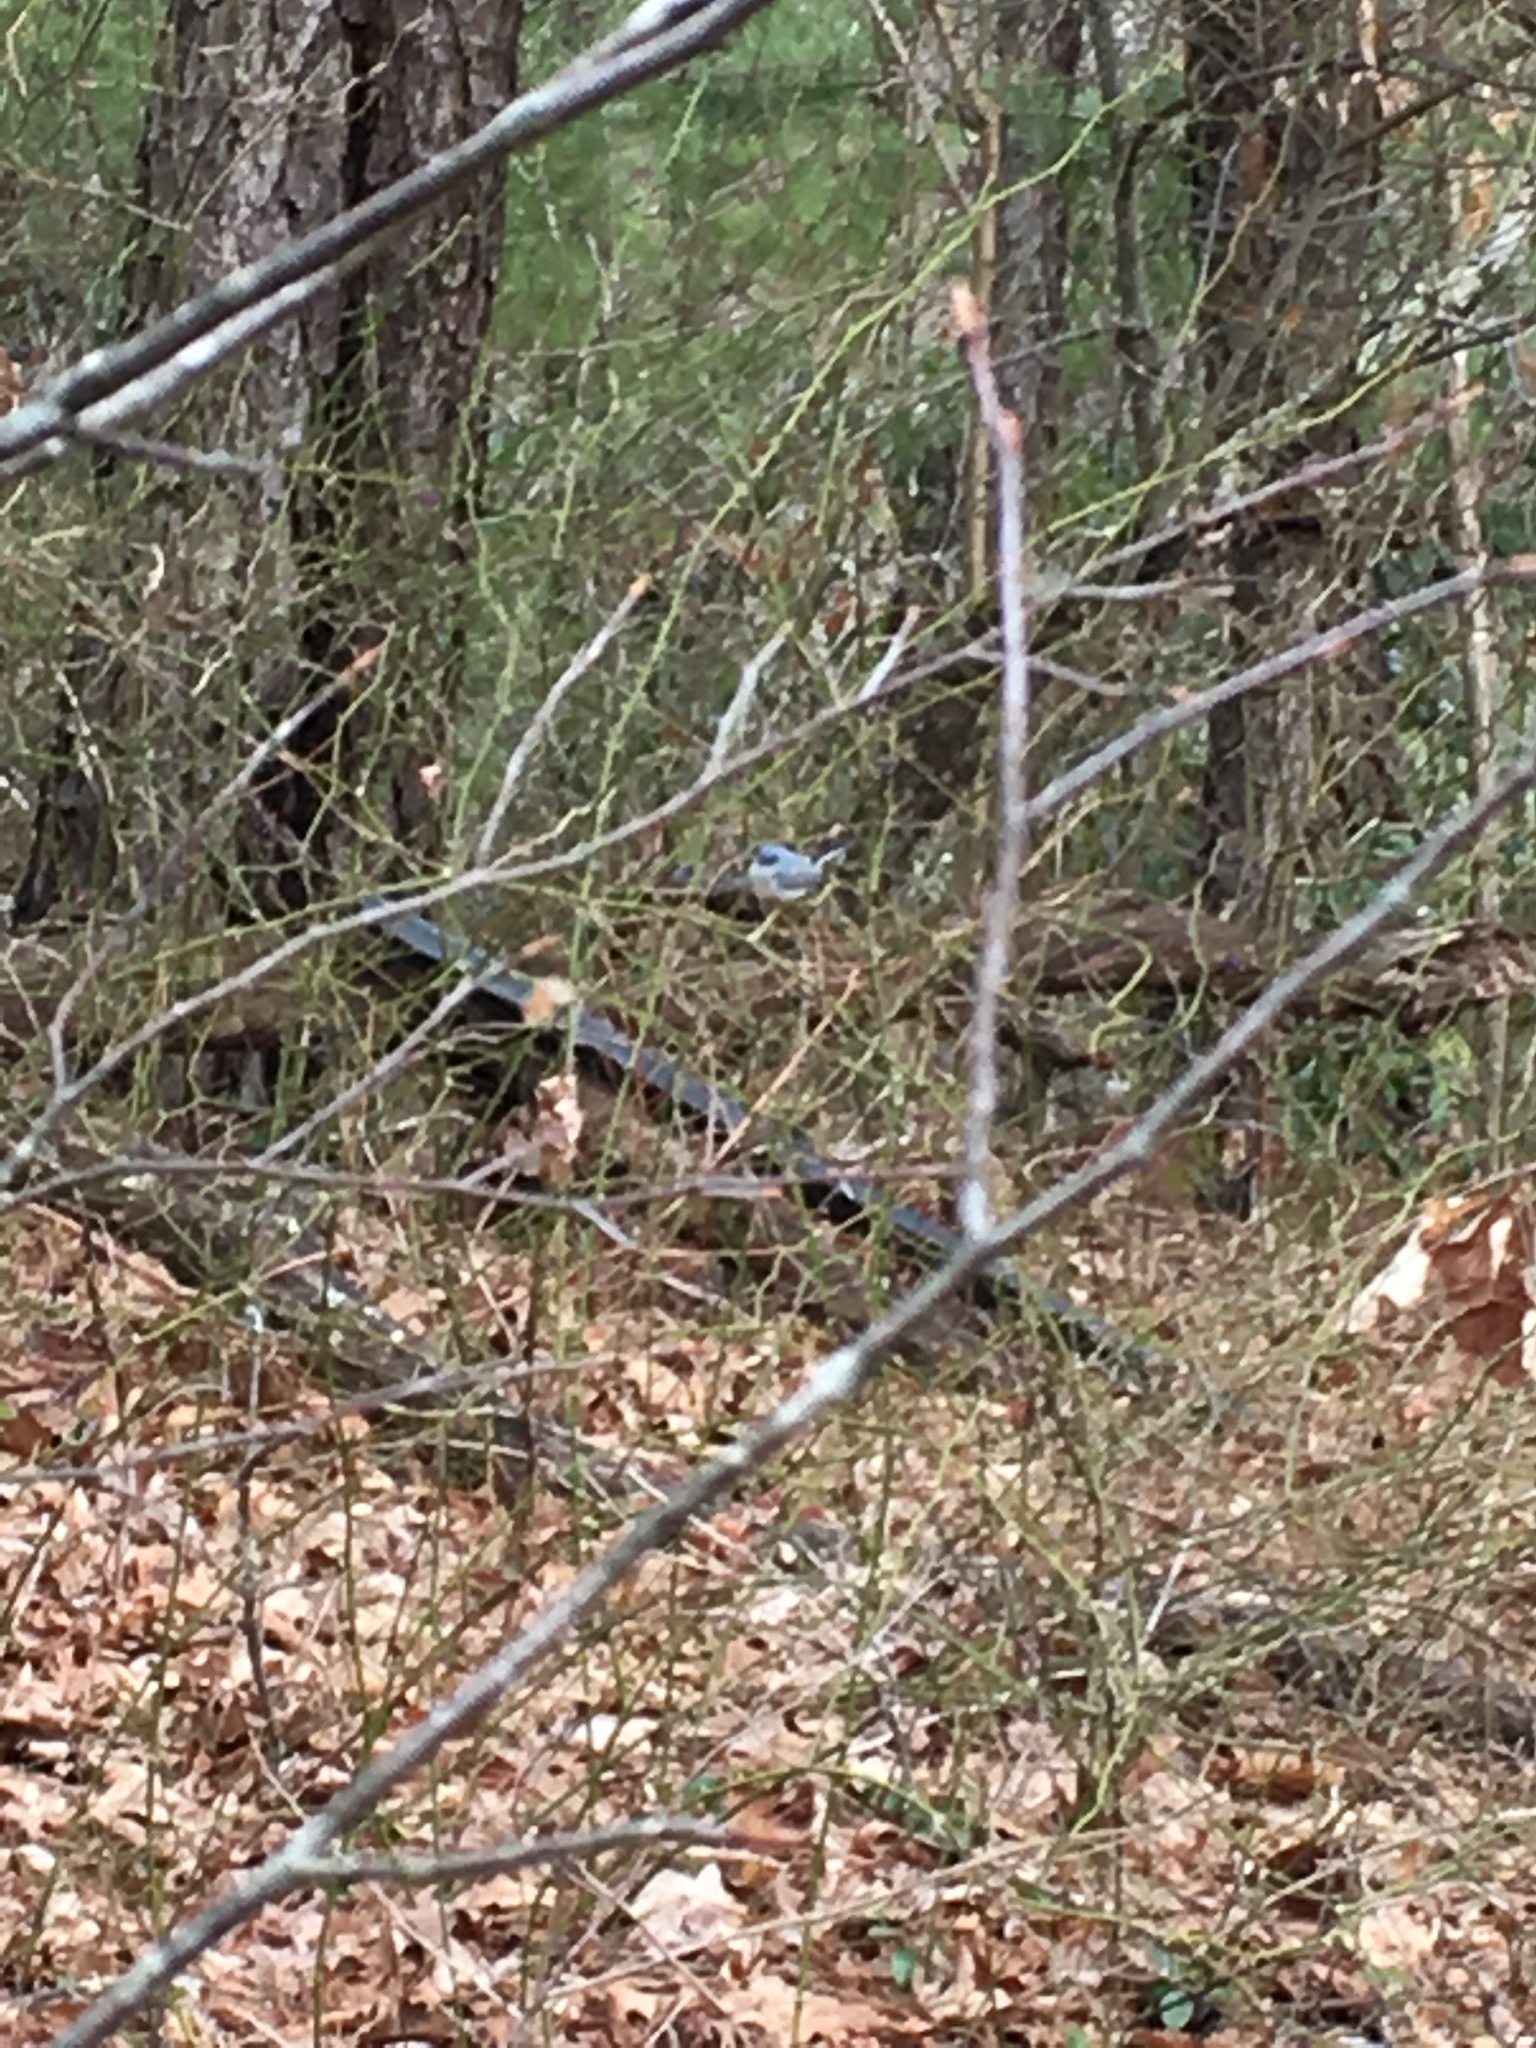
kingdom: Animalia
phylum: Chordata
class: Aves
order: Passeriformes
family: Polioptilidae
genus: Polioptila
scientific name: Polioptila caerulea
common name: Blue-gray gnatcatcher
